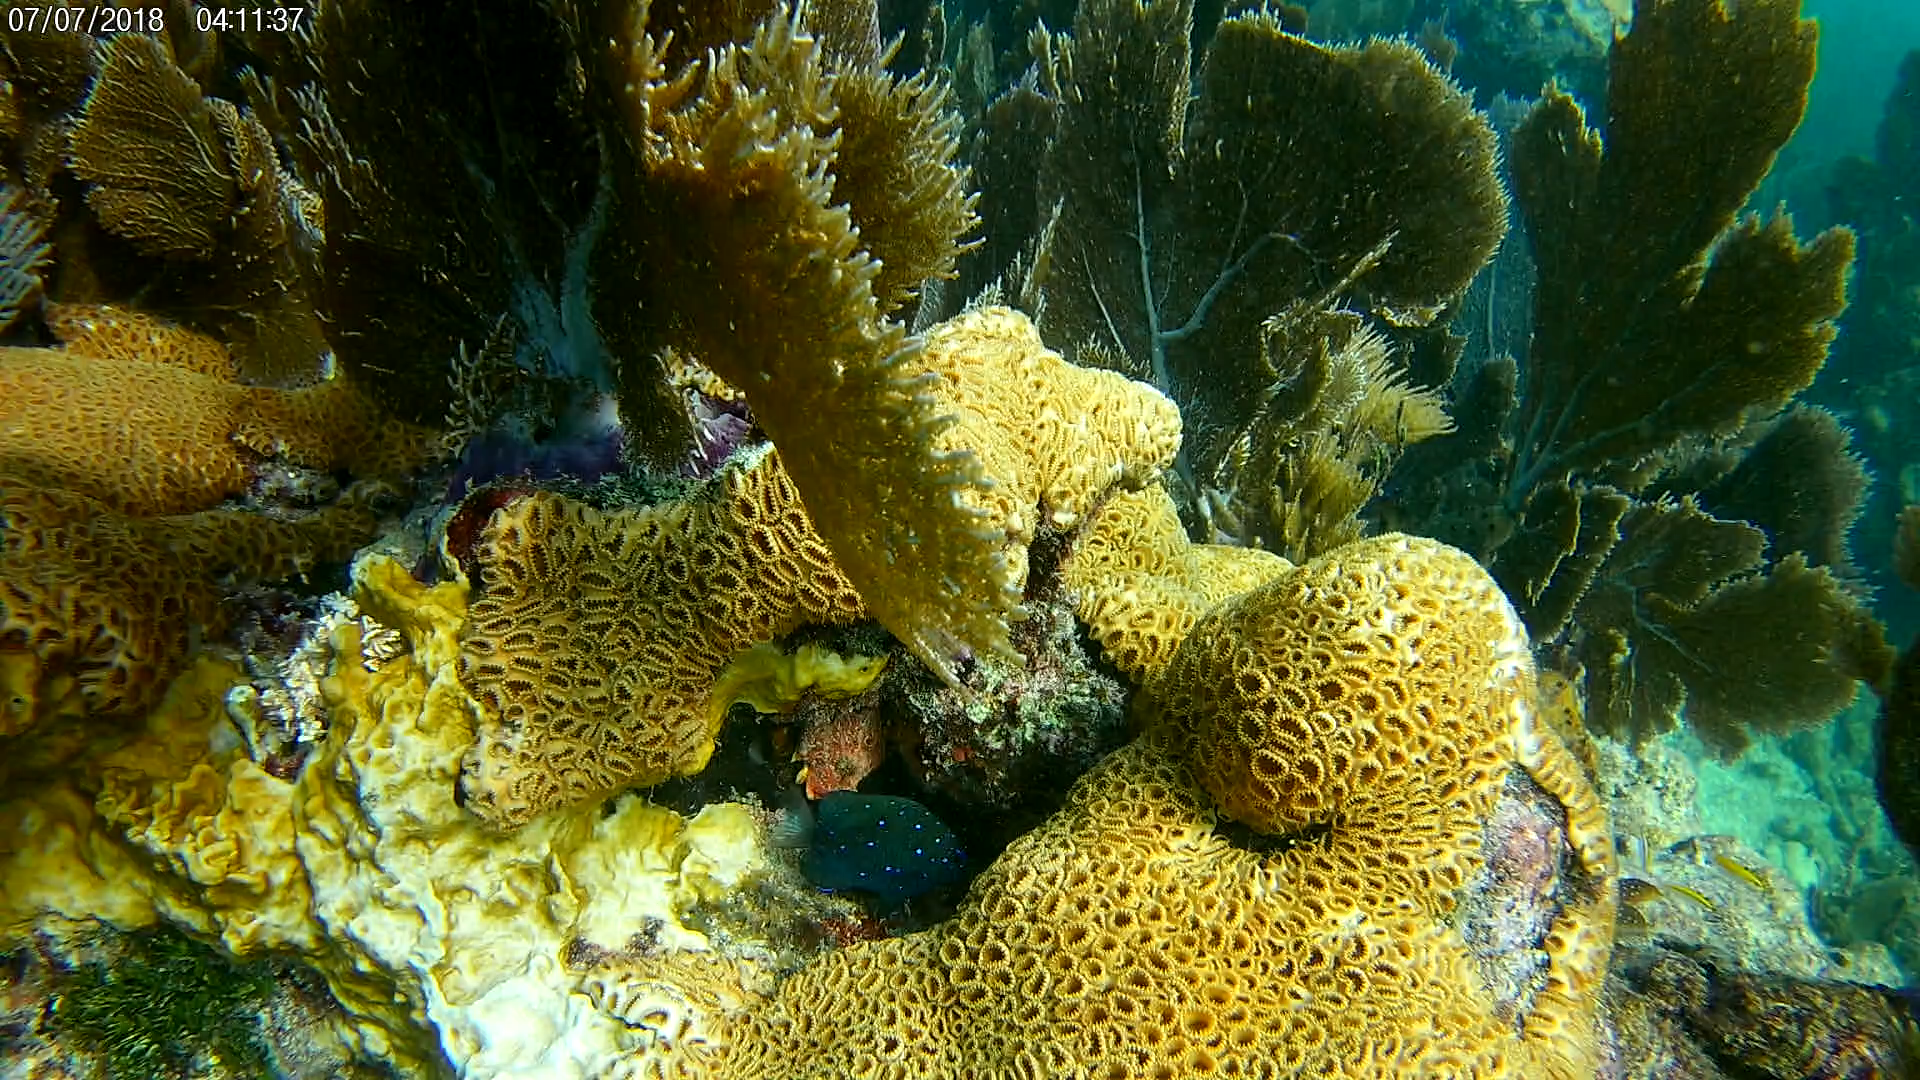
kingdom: Animalia
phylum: Chordata
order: Perciformes
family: Pomacentridae
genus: Microspathodon
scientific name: Microspathodon chrysurus
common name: Yellowtail damselfish
